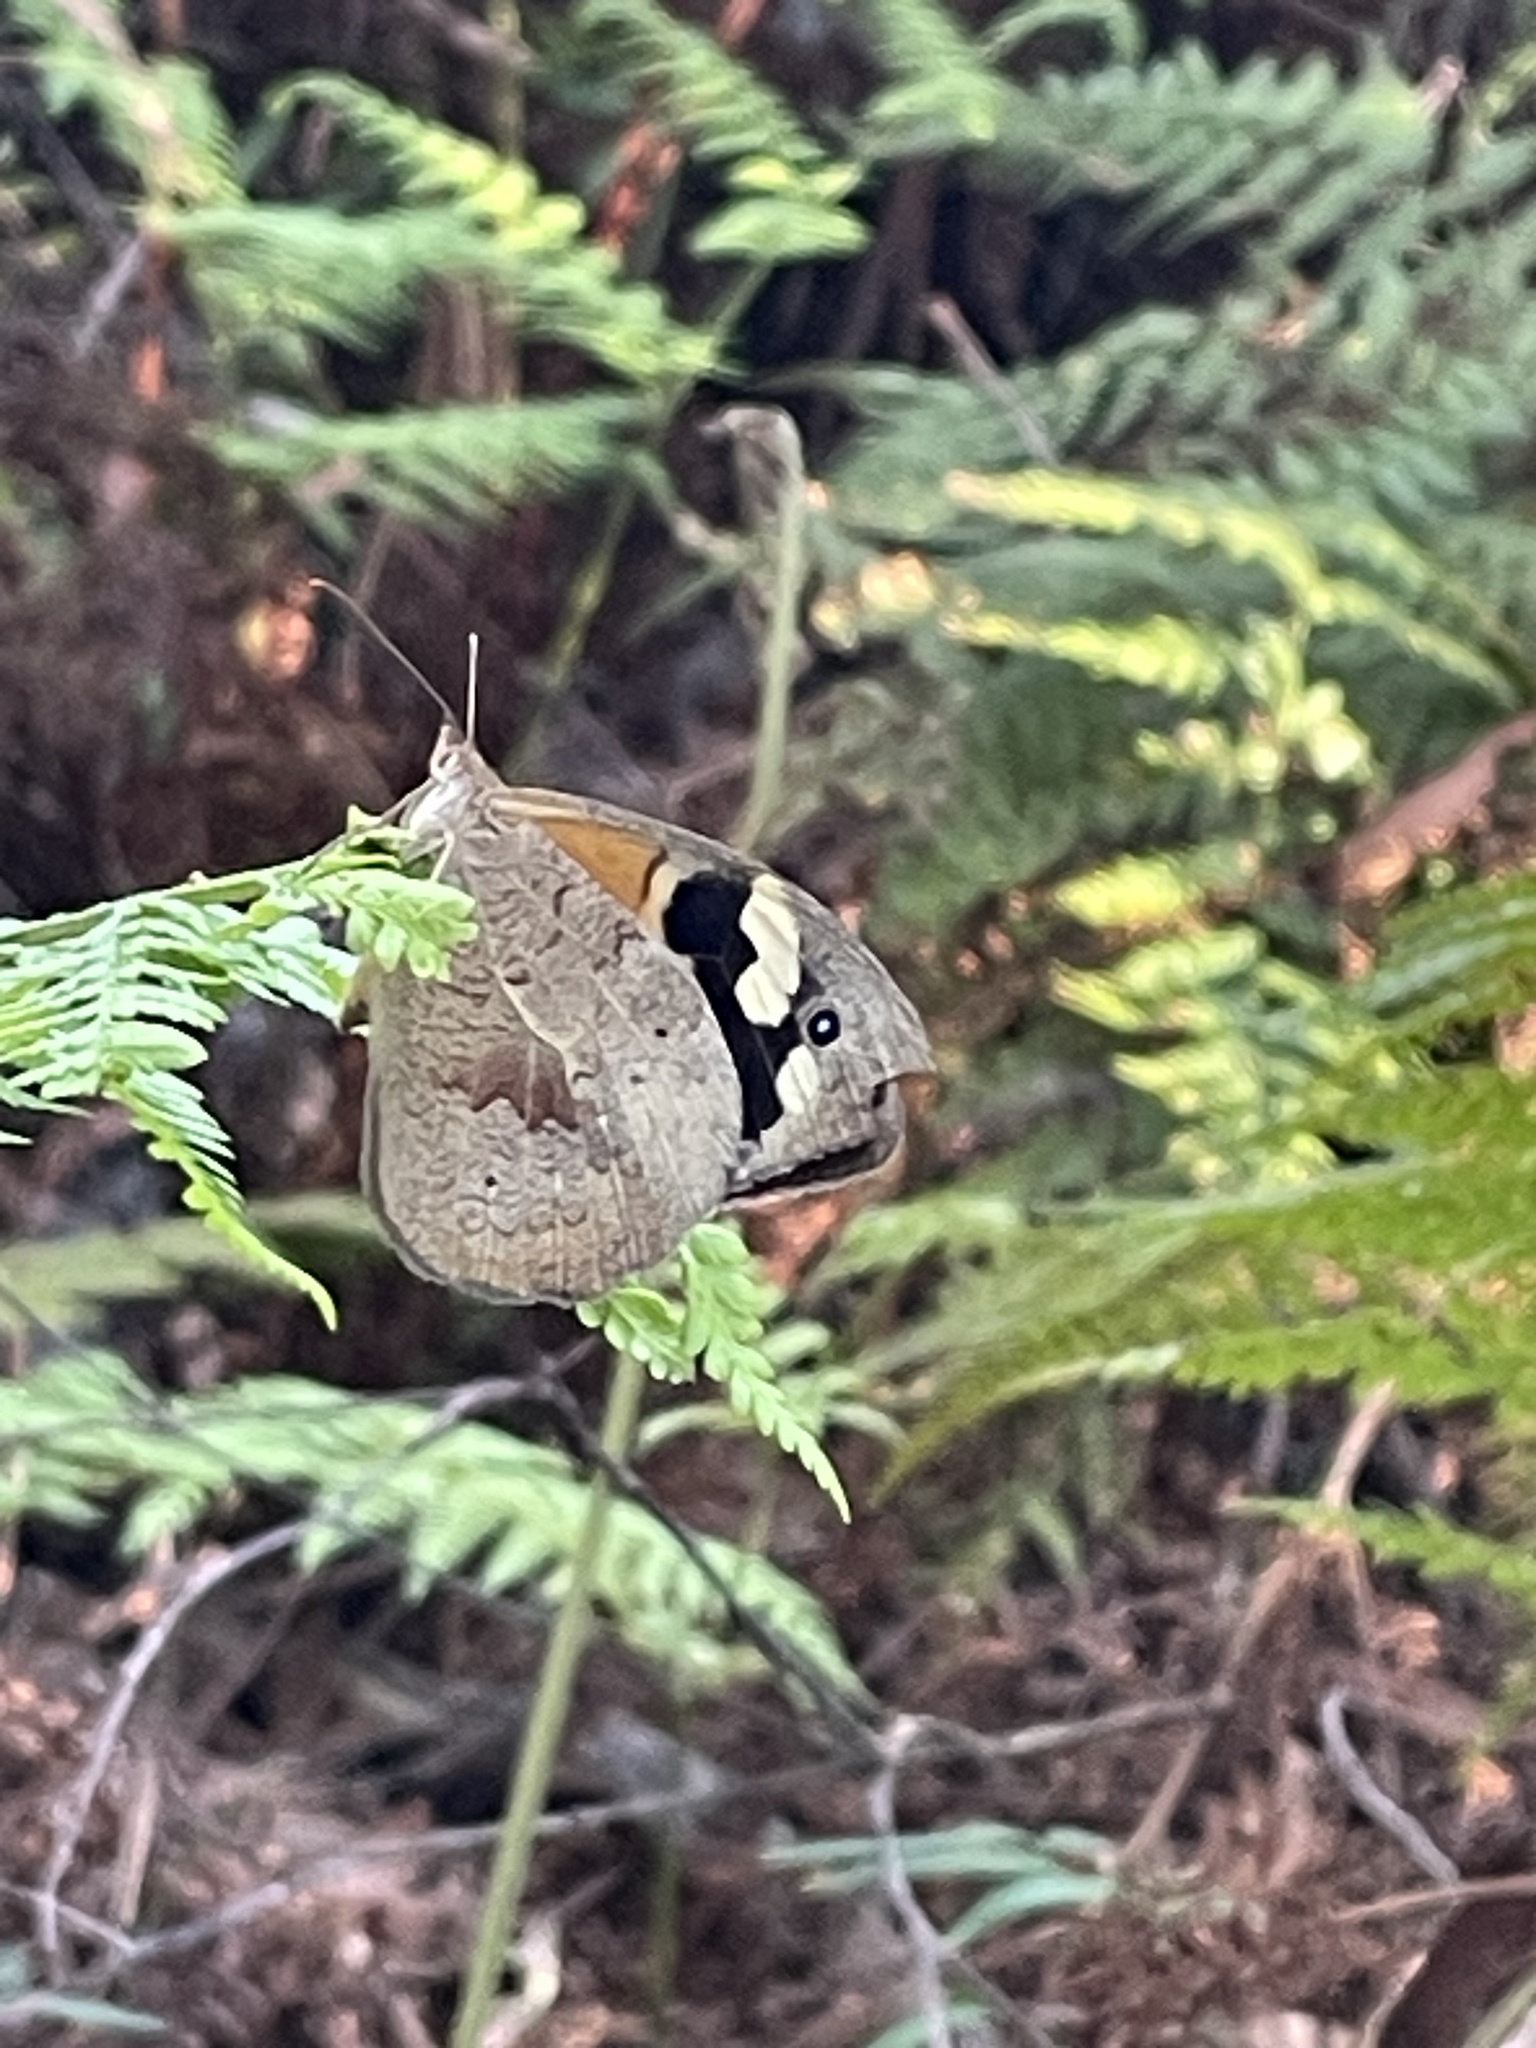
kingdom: Animalia
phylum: Arthropoda
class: Insecta
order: Lepidoptera
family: Nymphalidae
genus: Heteronympha
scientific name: Heteronympha merope
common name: Common brown
